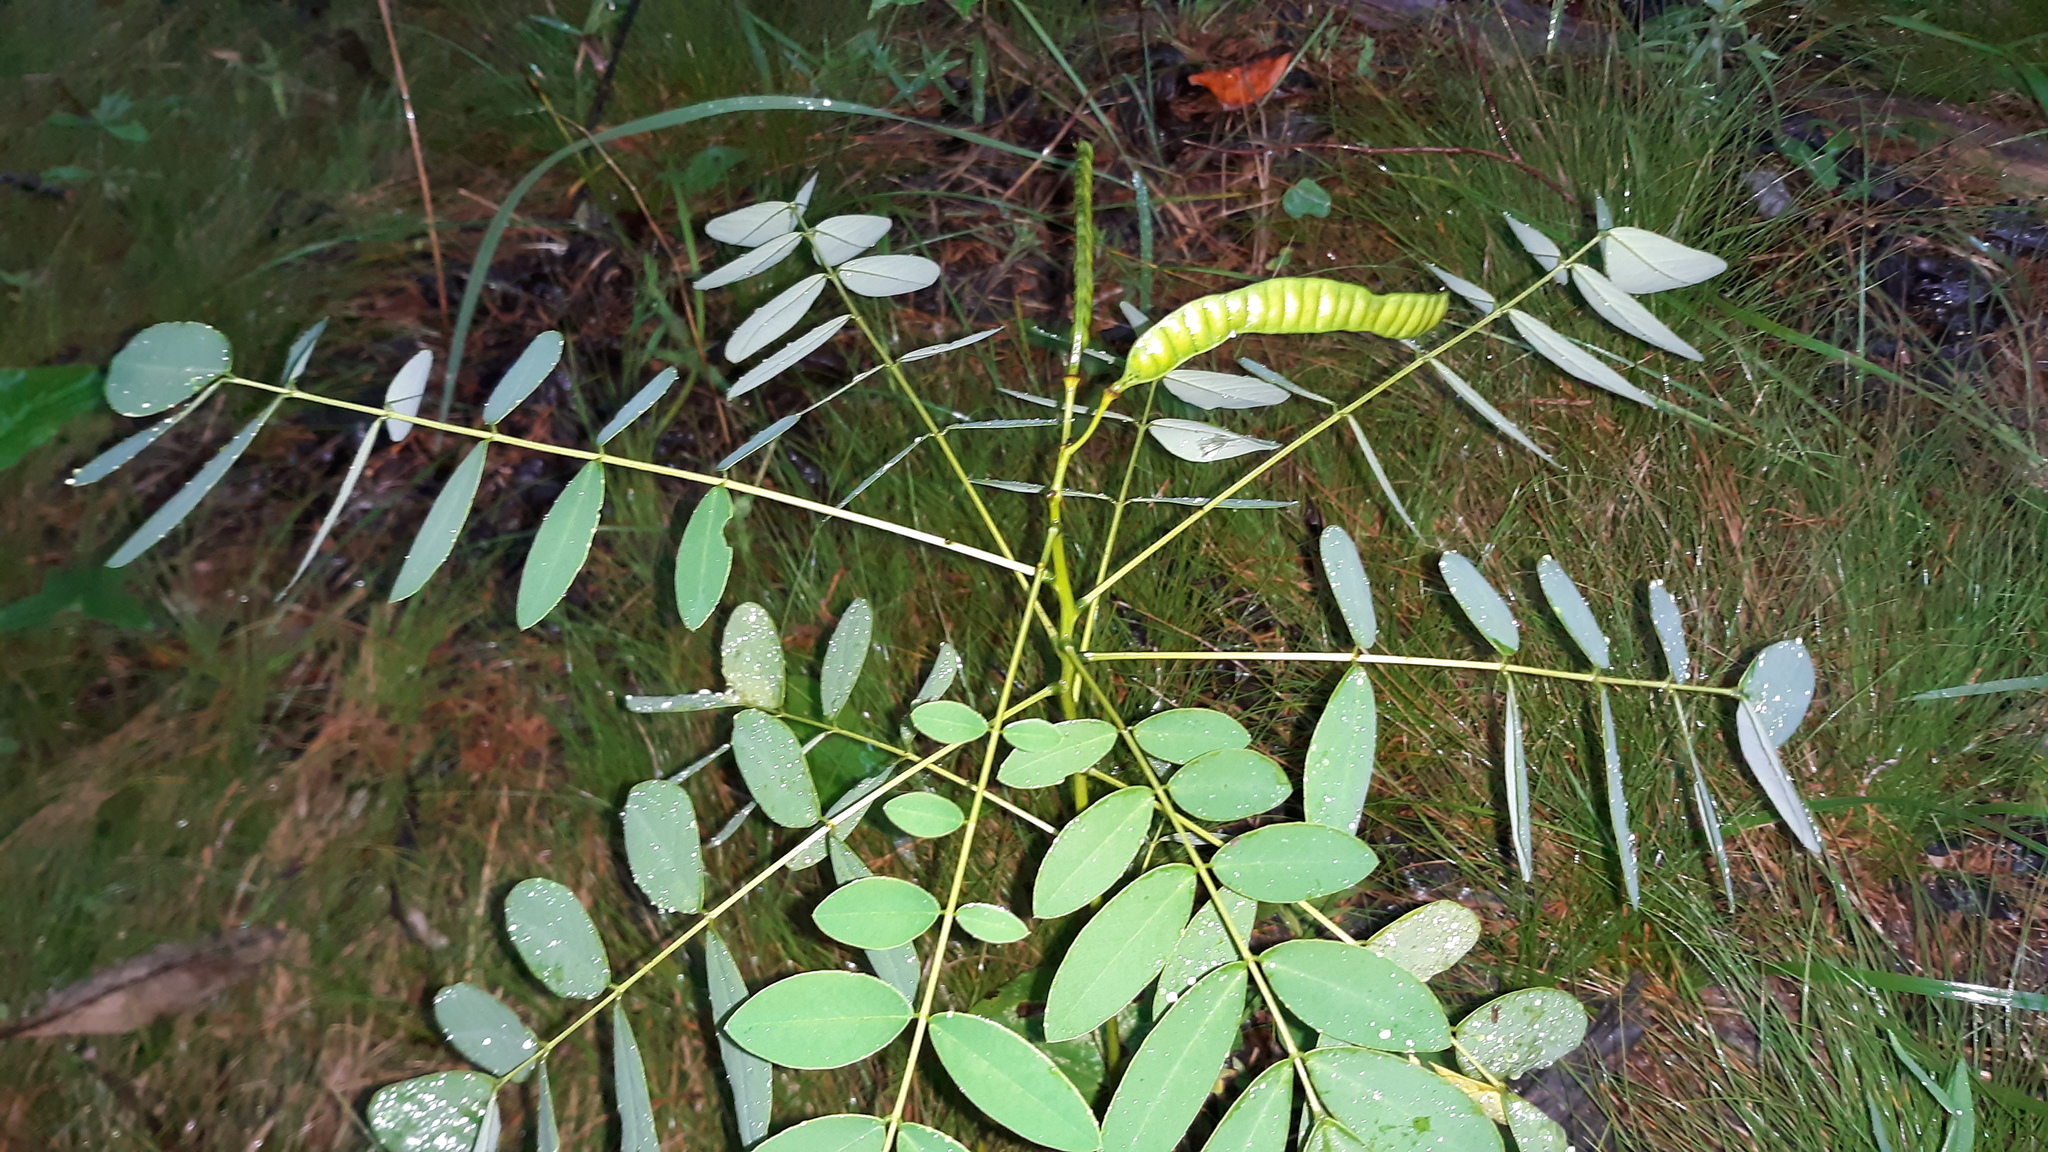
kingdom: Plantae
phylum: Tracheophyta
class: Magnoliopsida
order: Fabales
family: Fabaceae
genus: Senna
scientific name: Senna marilandica
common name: American senna
